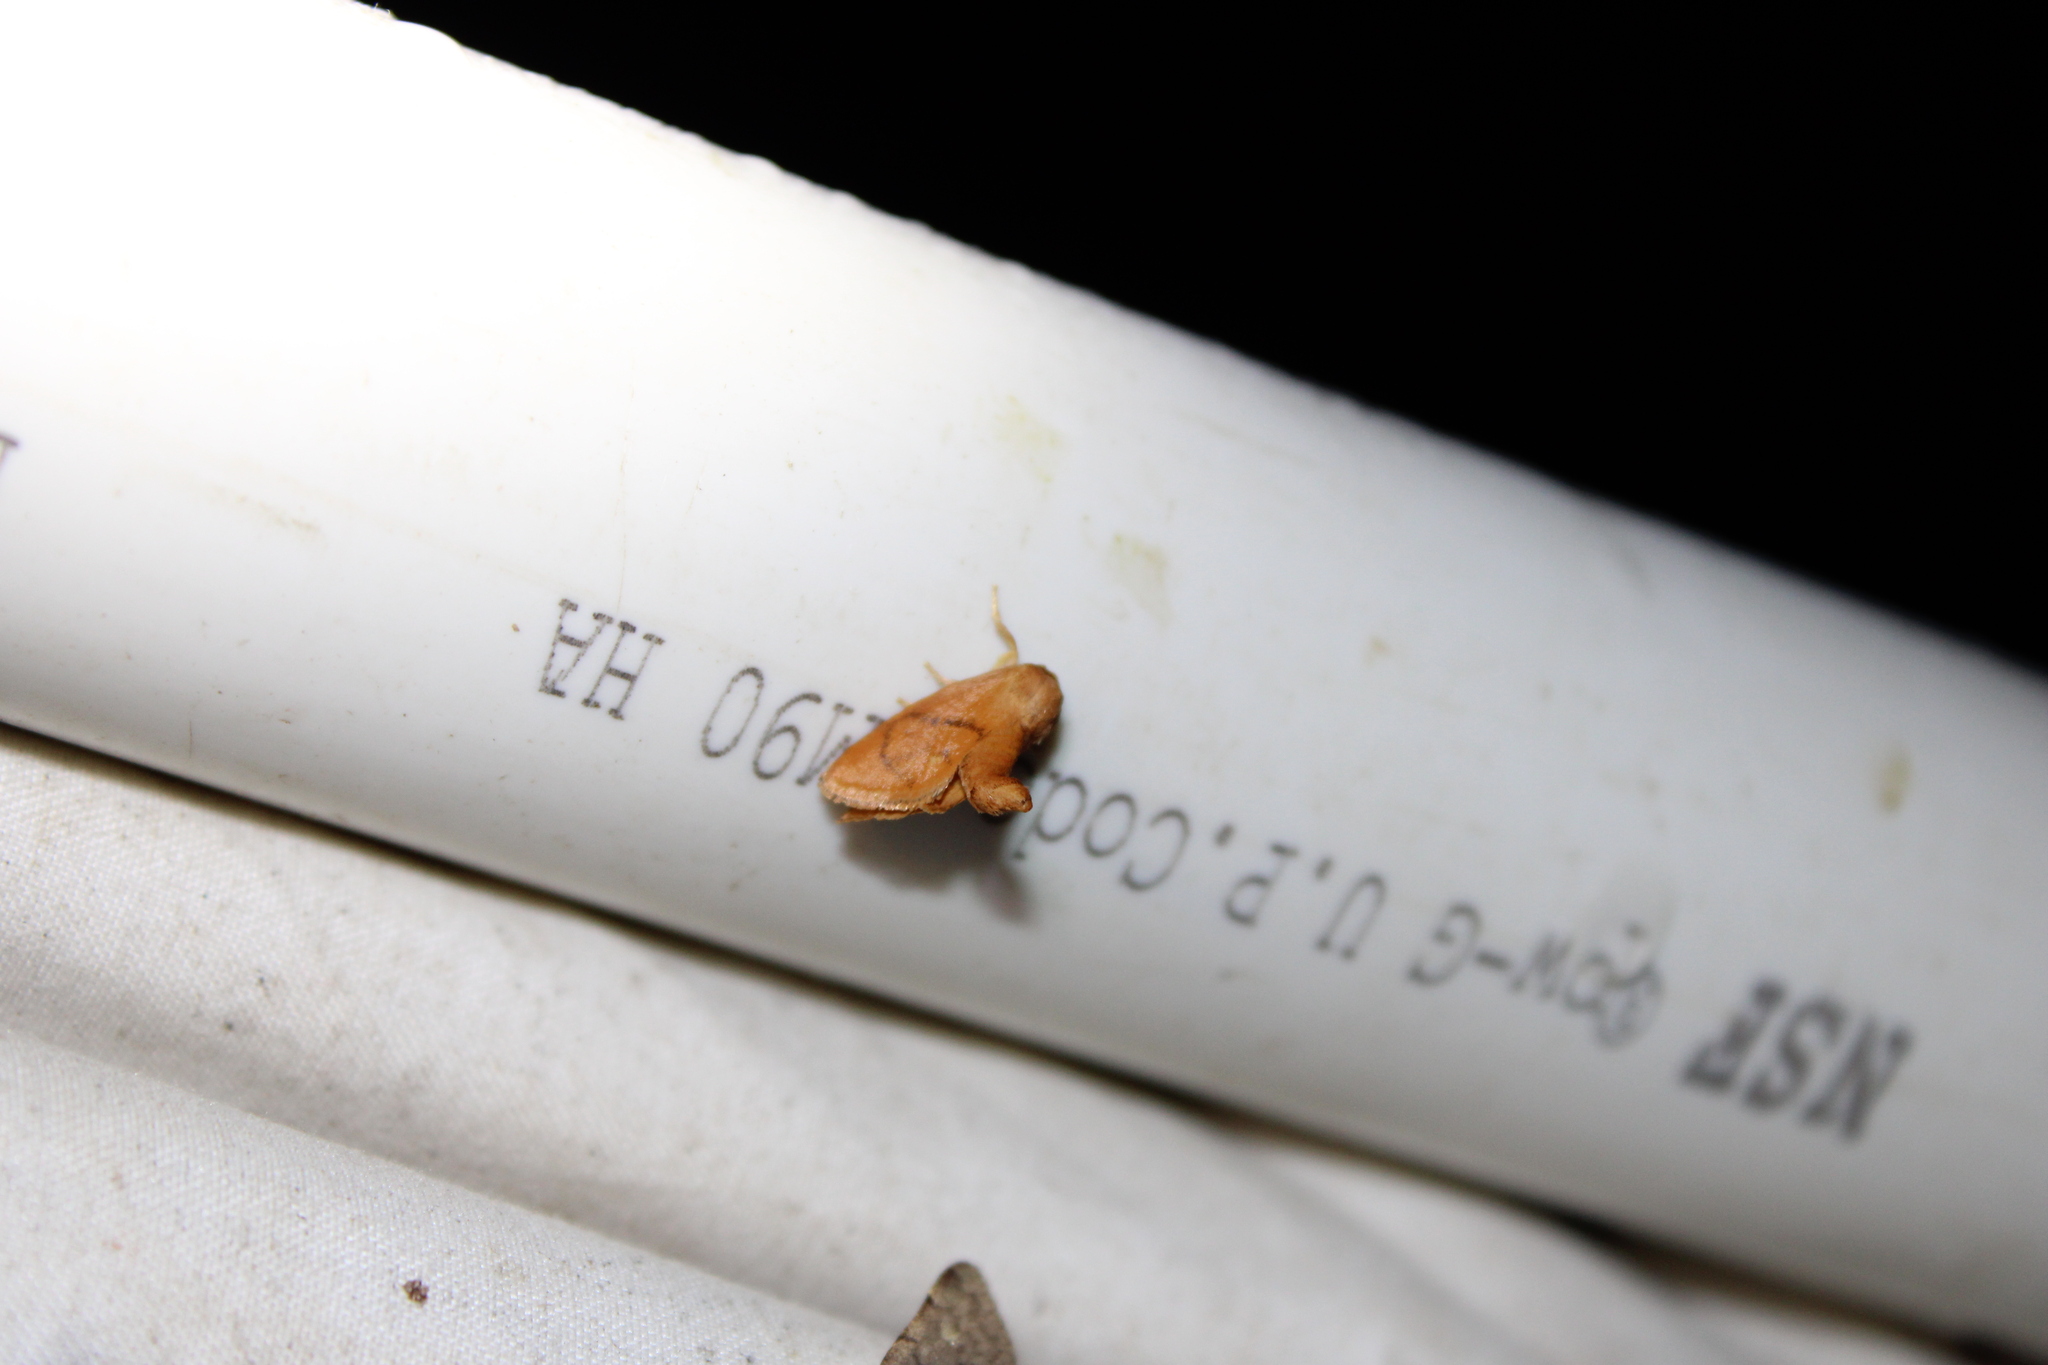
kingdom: Animalia
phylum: Arthropoda
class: Insecta
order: Lepidoptera
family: Limacodidae
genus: Tortricidia
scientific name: Tortricidia flexuosa
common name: Abbreviated button slug moth
